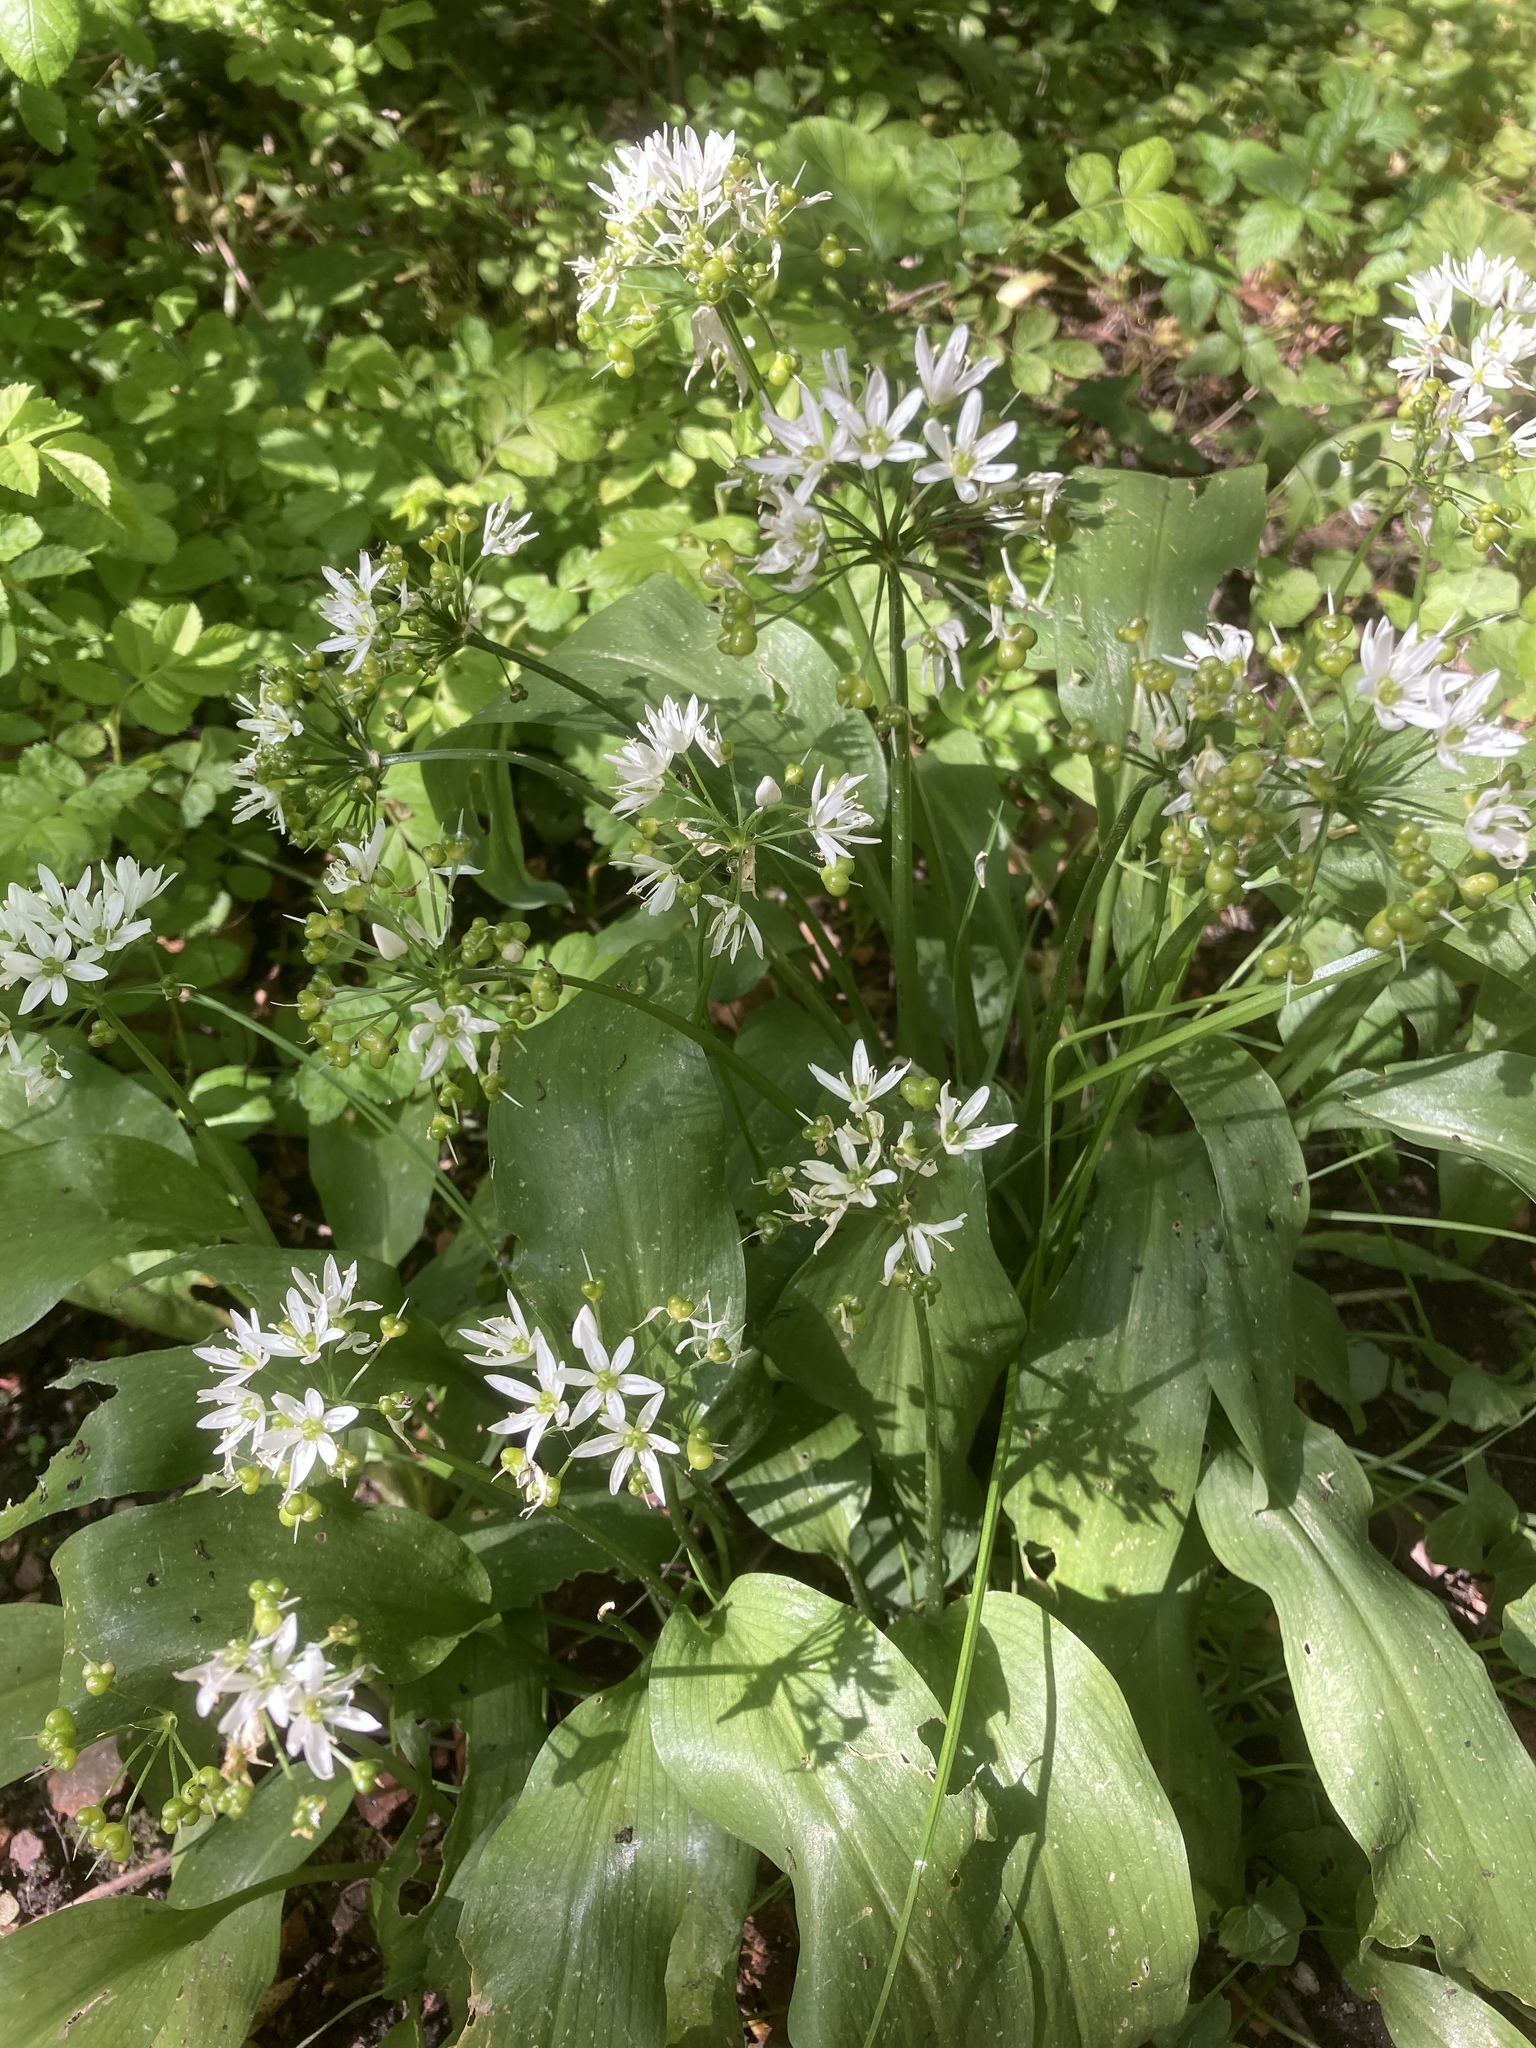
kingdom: Plantae
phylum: Tracheophyta
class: Liliopsida
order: Asparagales
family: Amaryllidaceae
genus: Allium
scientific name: Allium ursinum
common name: Ramsons
